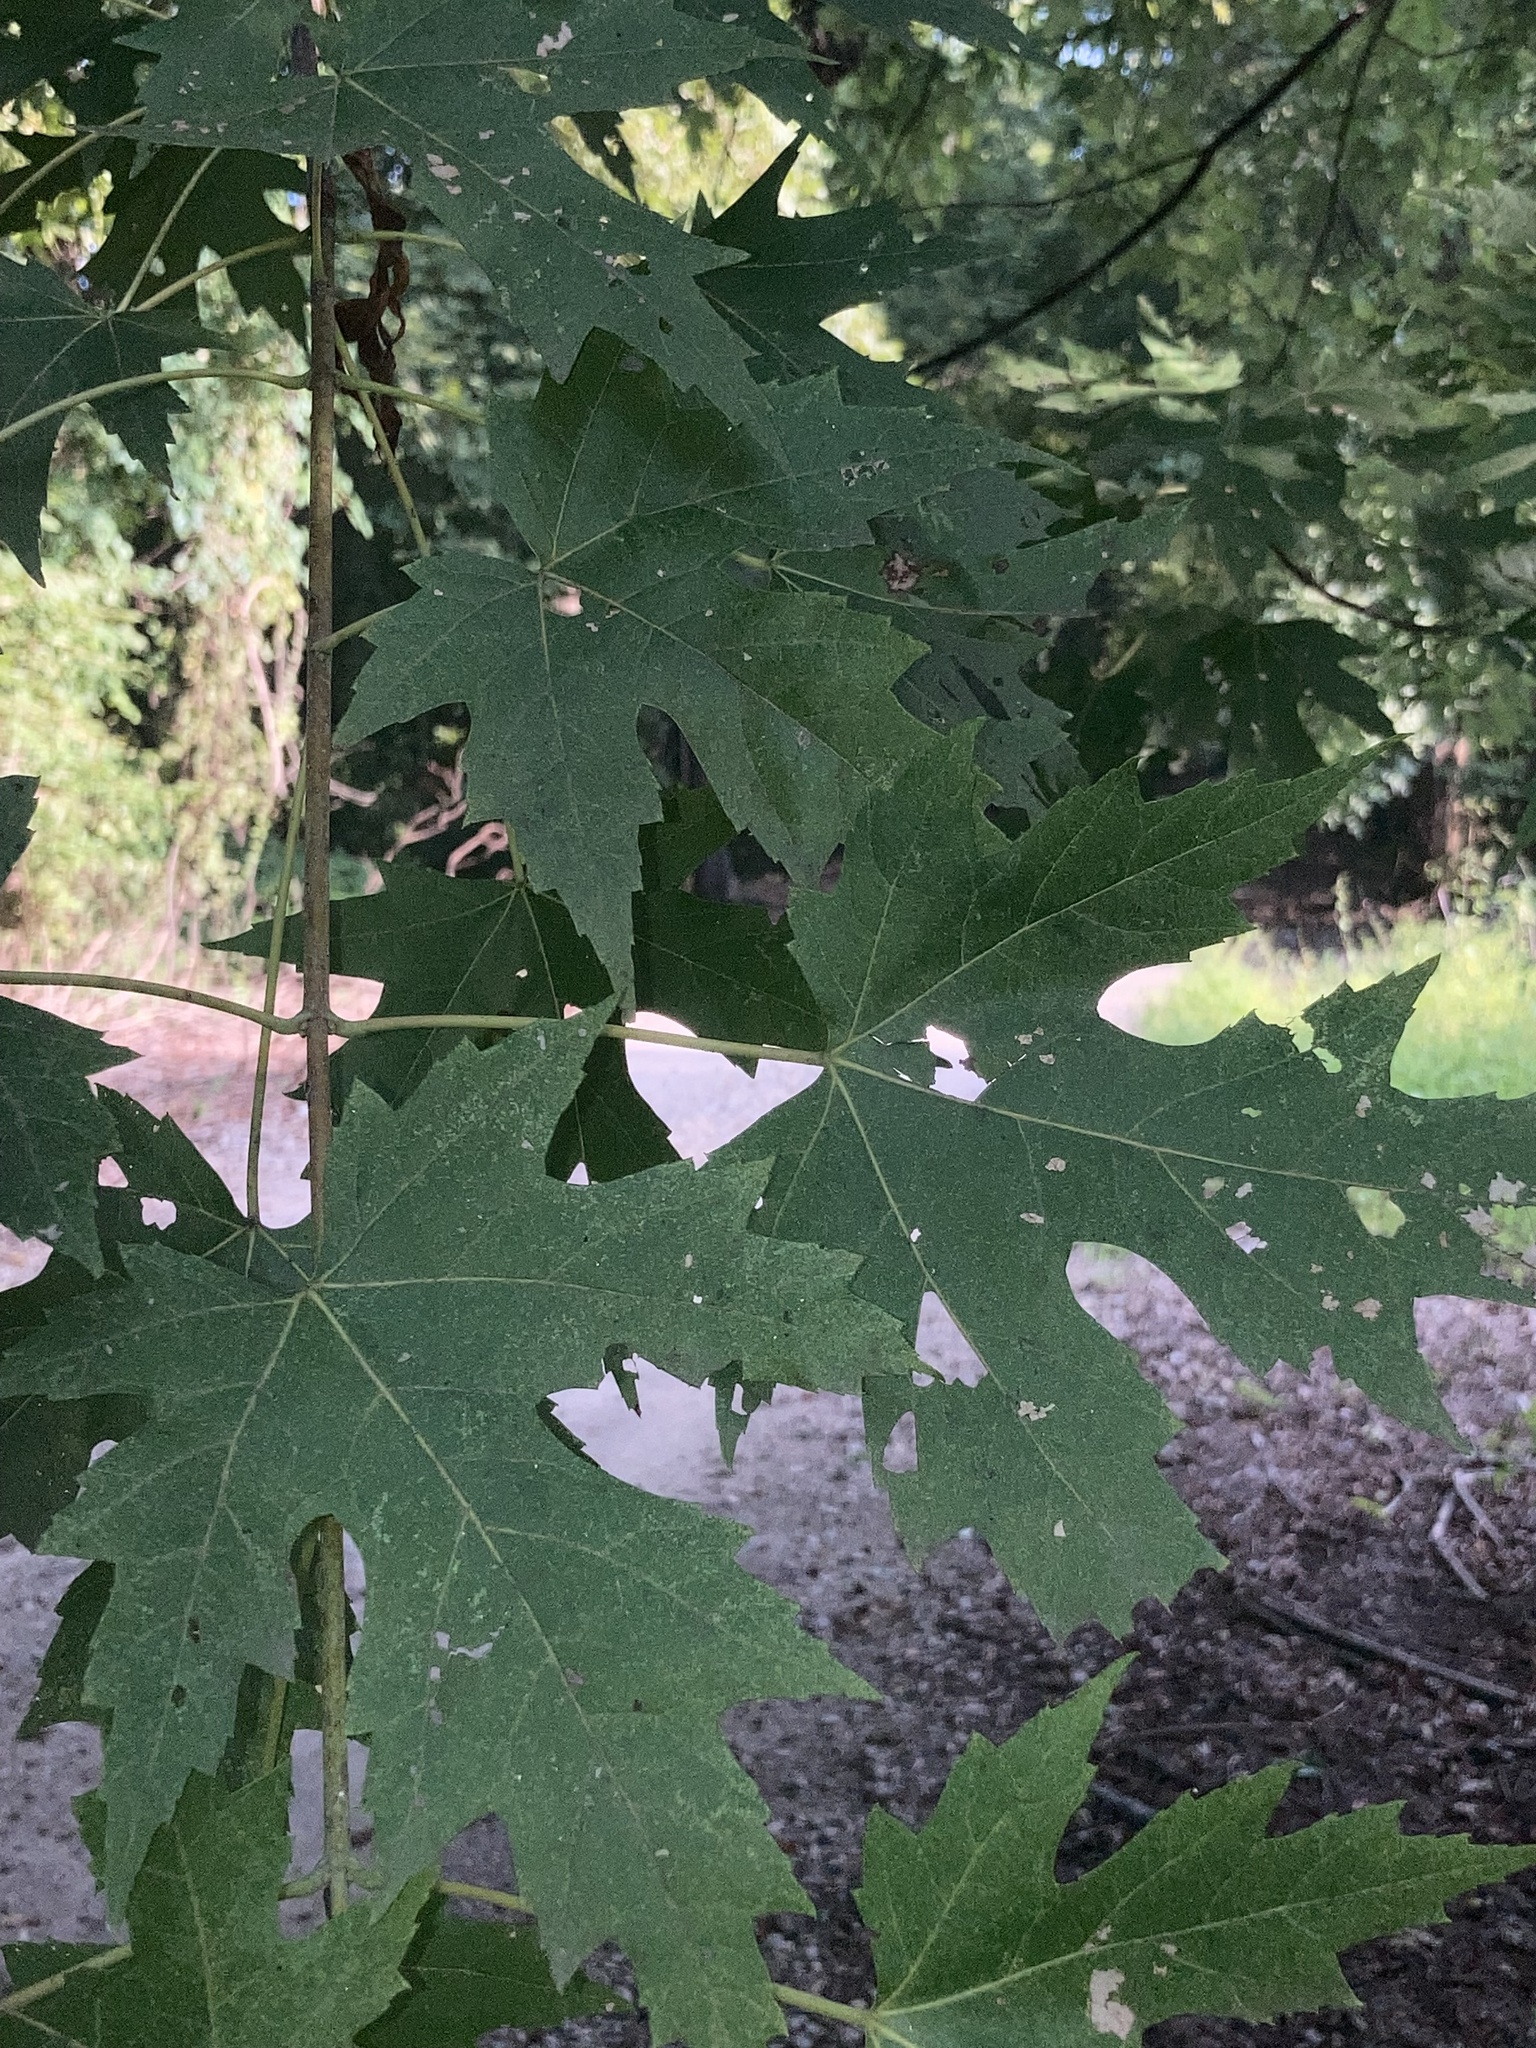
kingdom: Plantae
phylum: Tracheophyta
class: Magnoliopsida
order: Sapindales
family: Sapindaceae
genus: Acer
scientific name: Acer saccharinum
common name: Silver maple
